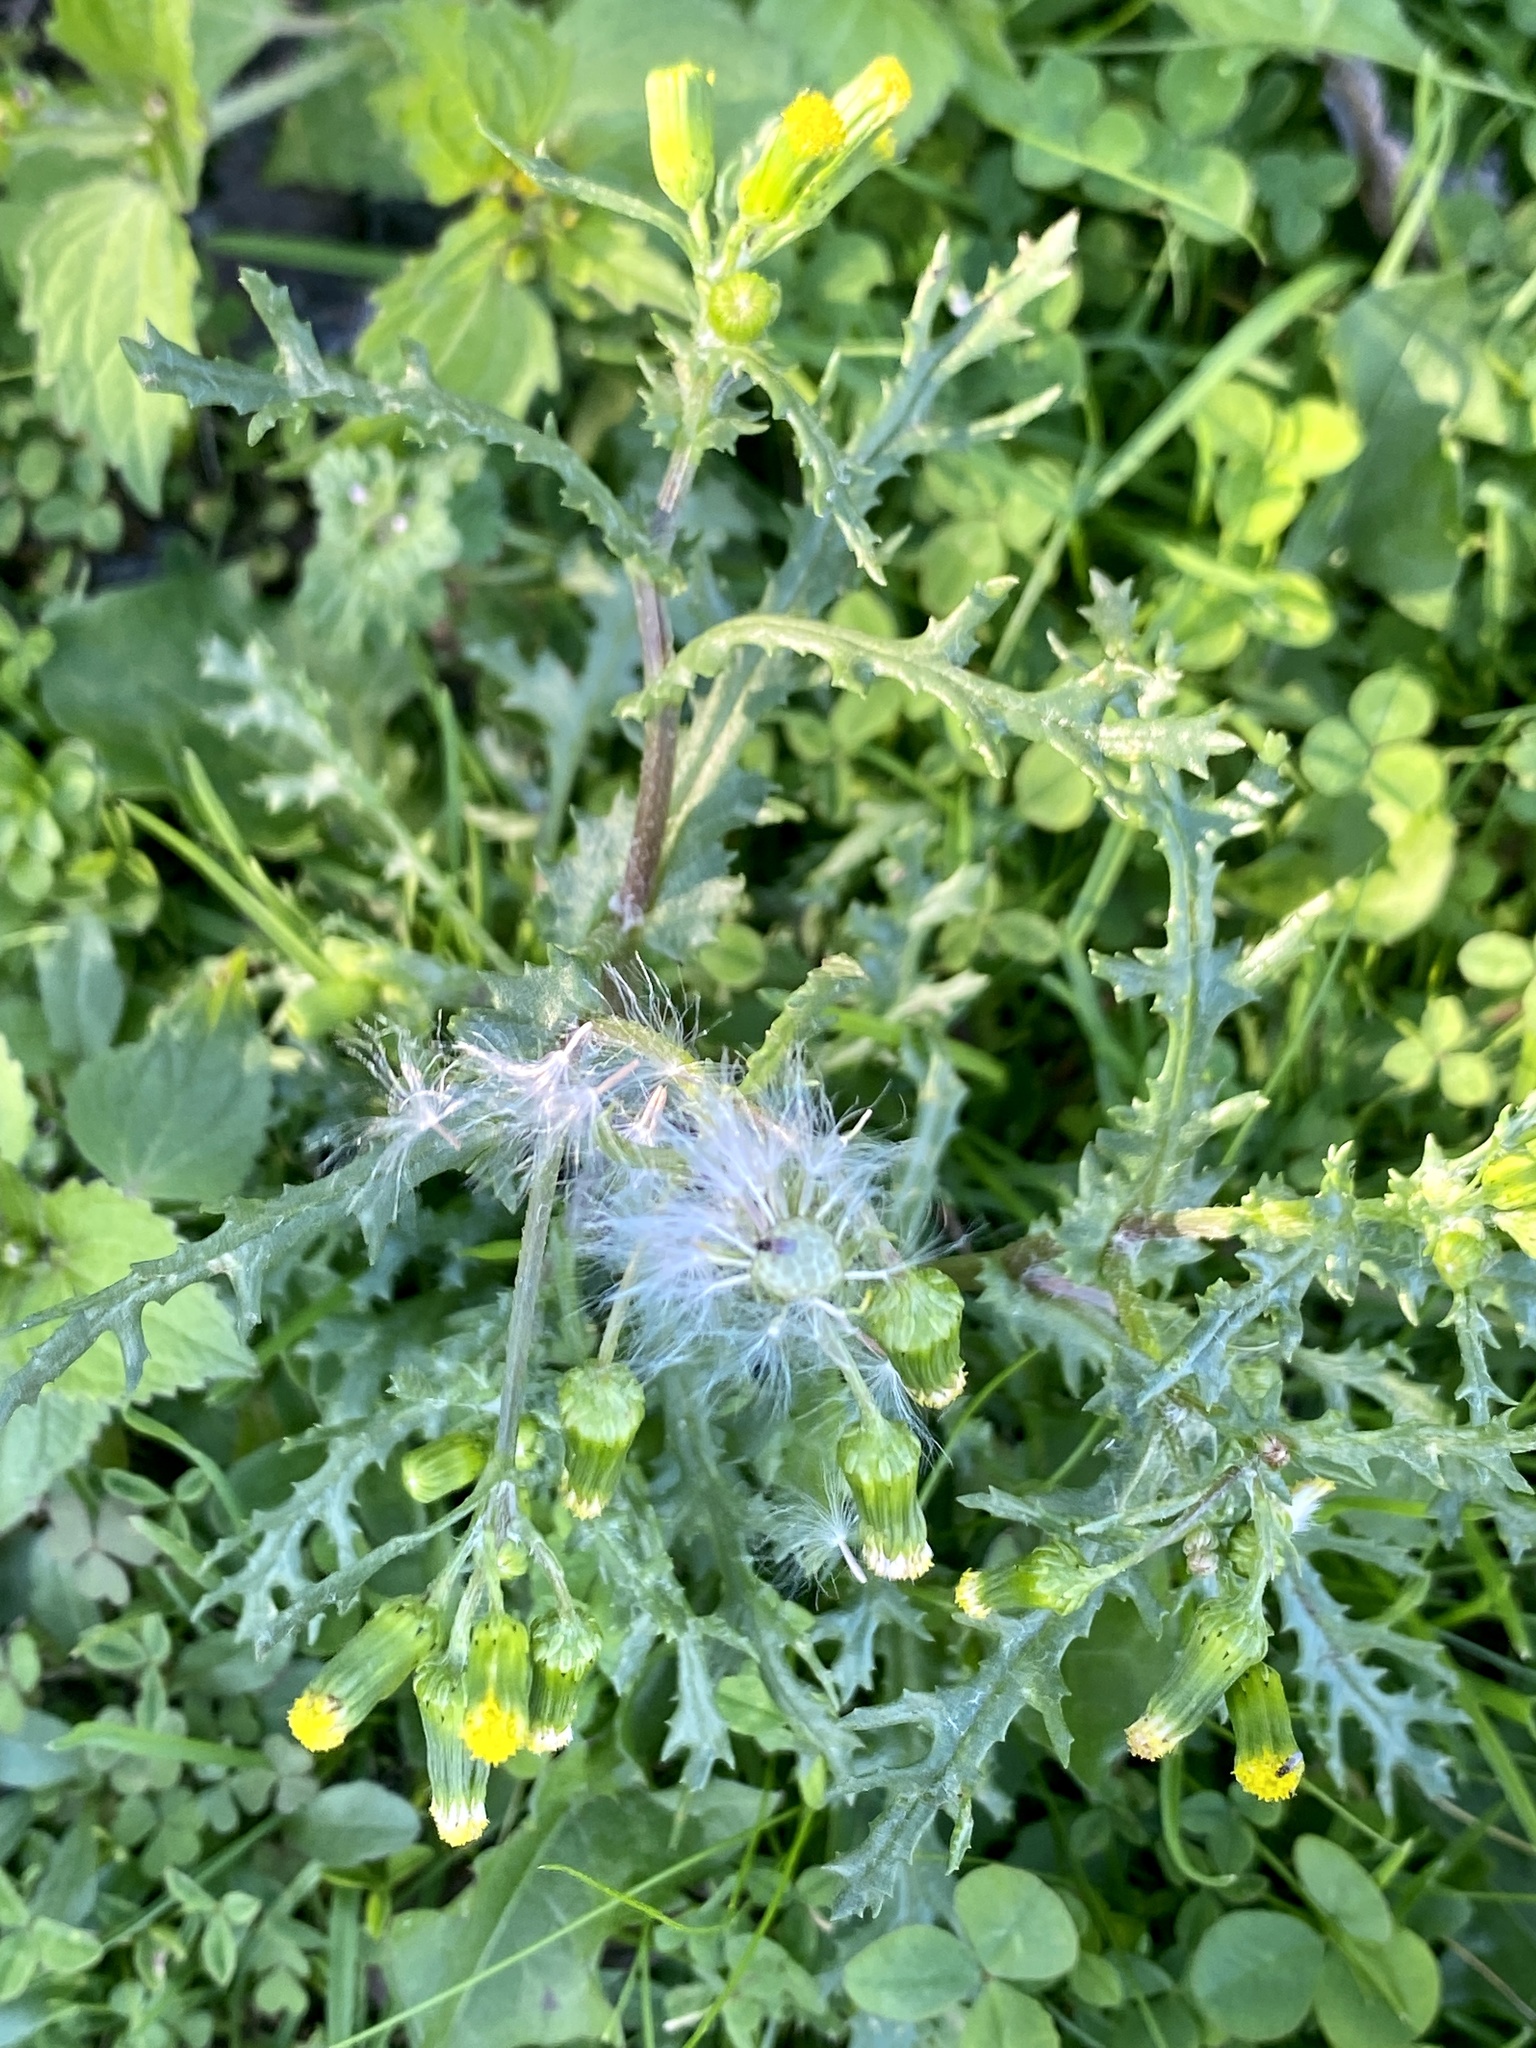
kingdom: Plantae
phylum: Tracheophyta
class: Magnoliopsida
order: Asterales
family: Asteraceae
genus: Senecio
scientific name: Senecio vulgaris
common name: Old-man-in-the-spring
